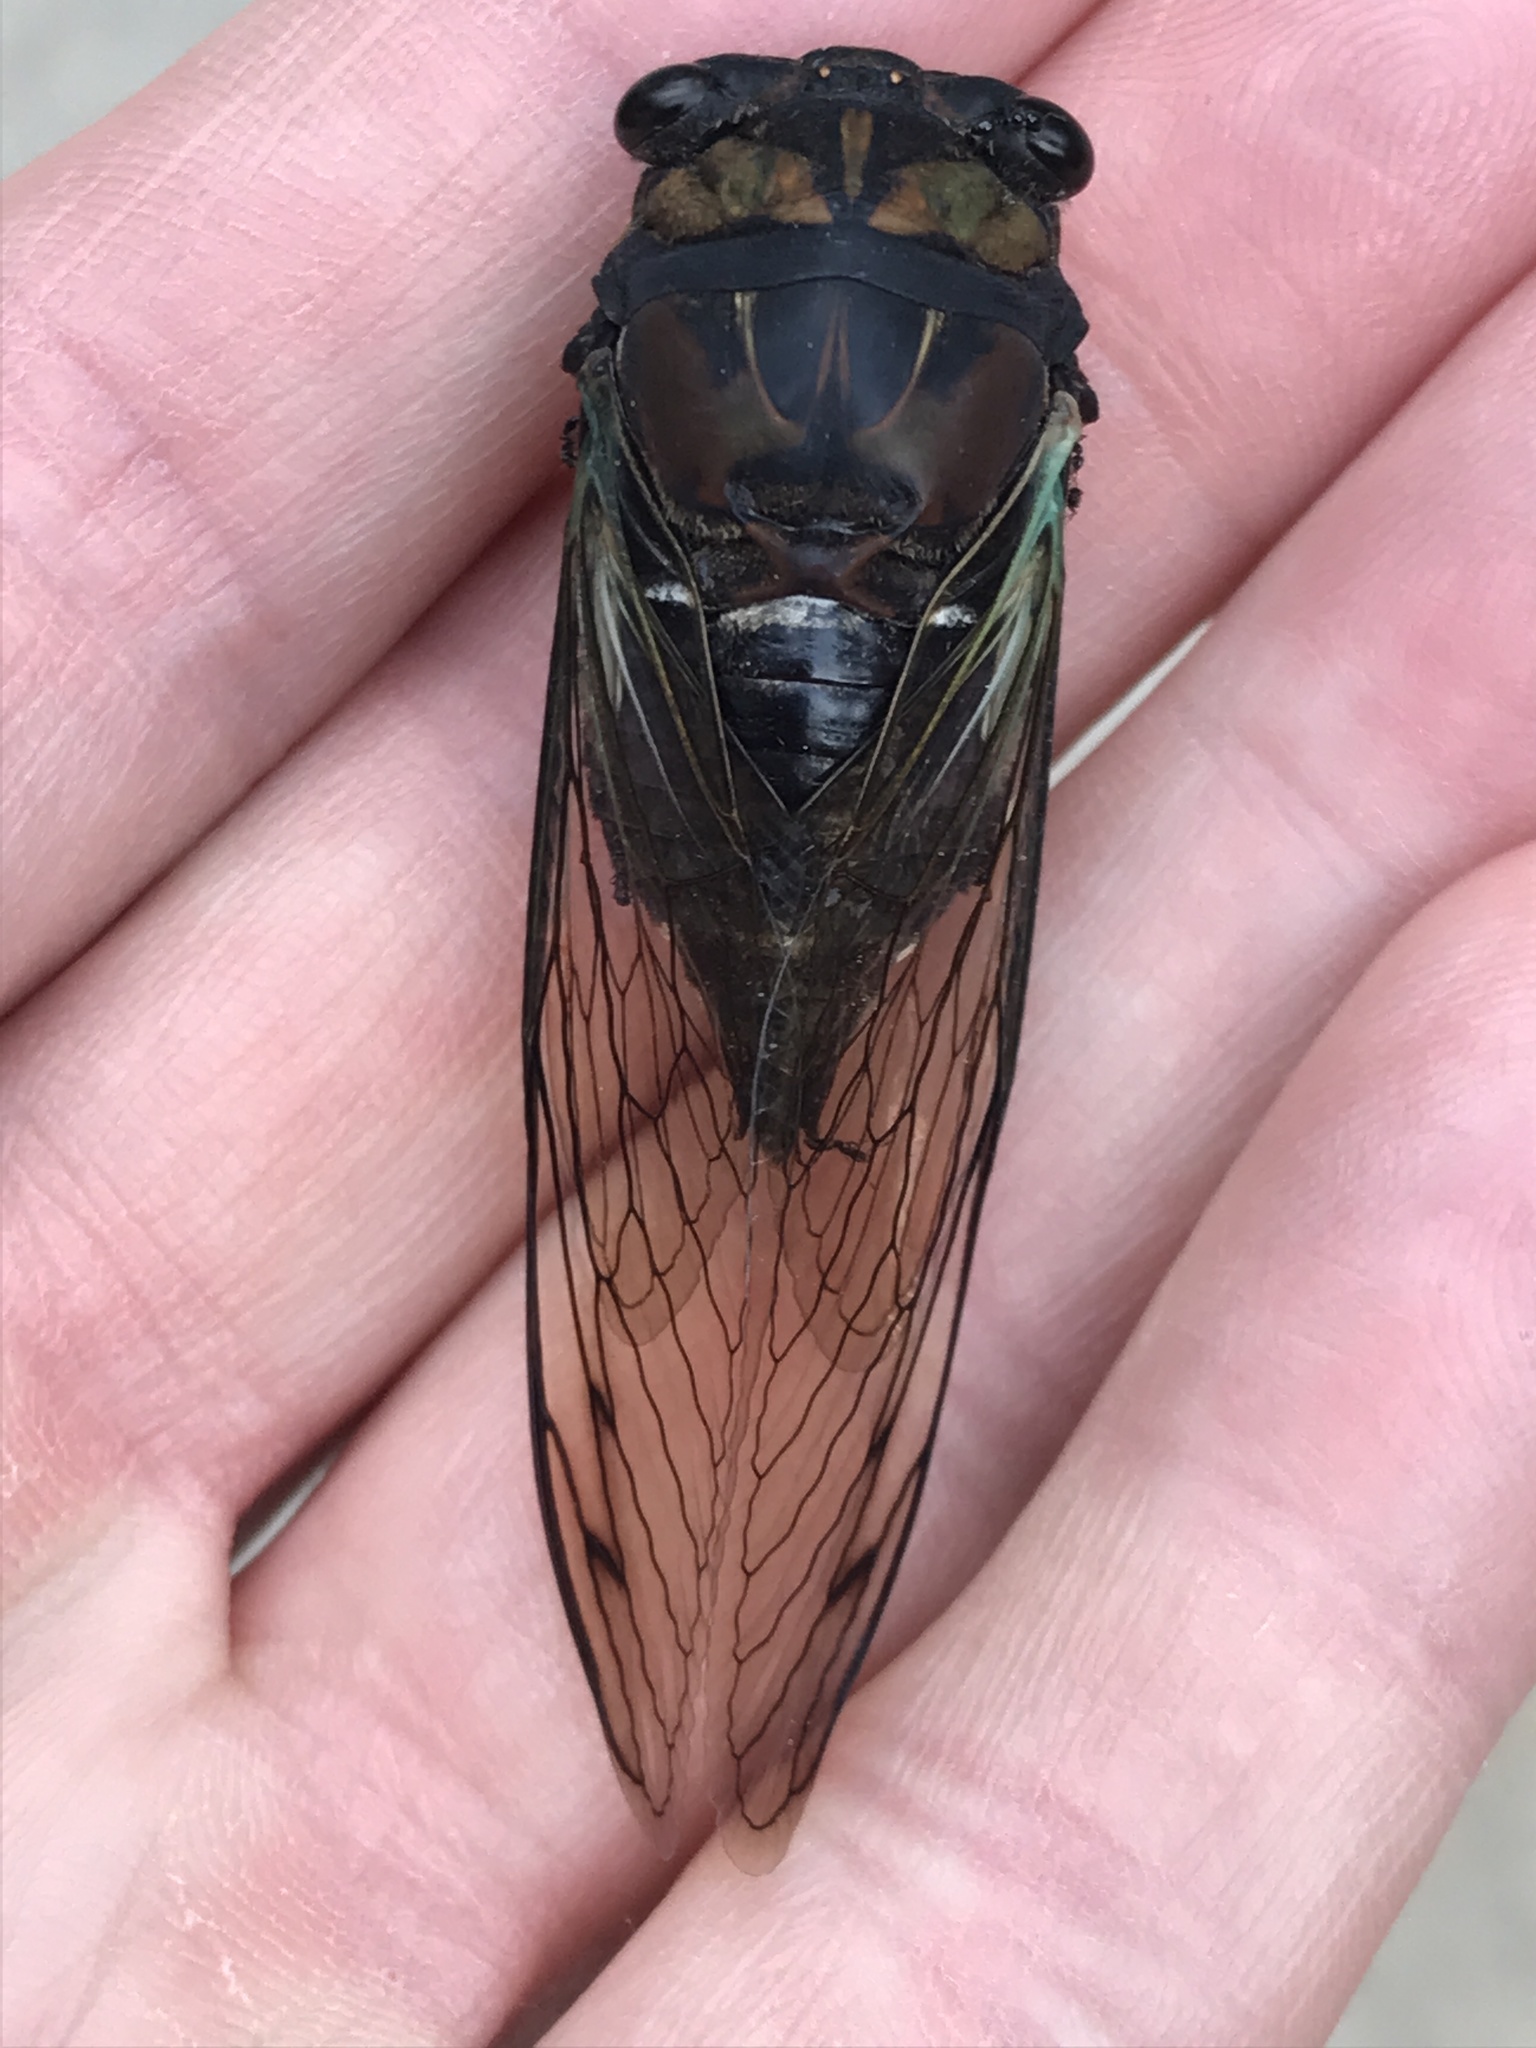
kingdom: Animalia
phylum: Arthropoda
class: Insecta
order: Hemiptera
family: Cicadidae
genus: Neotibicen
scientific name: Neotibicen lyricen
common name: Lyric cicada
